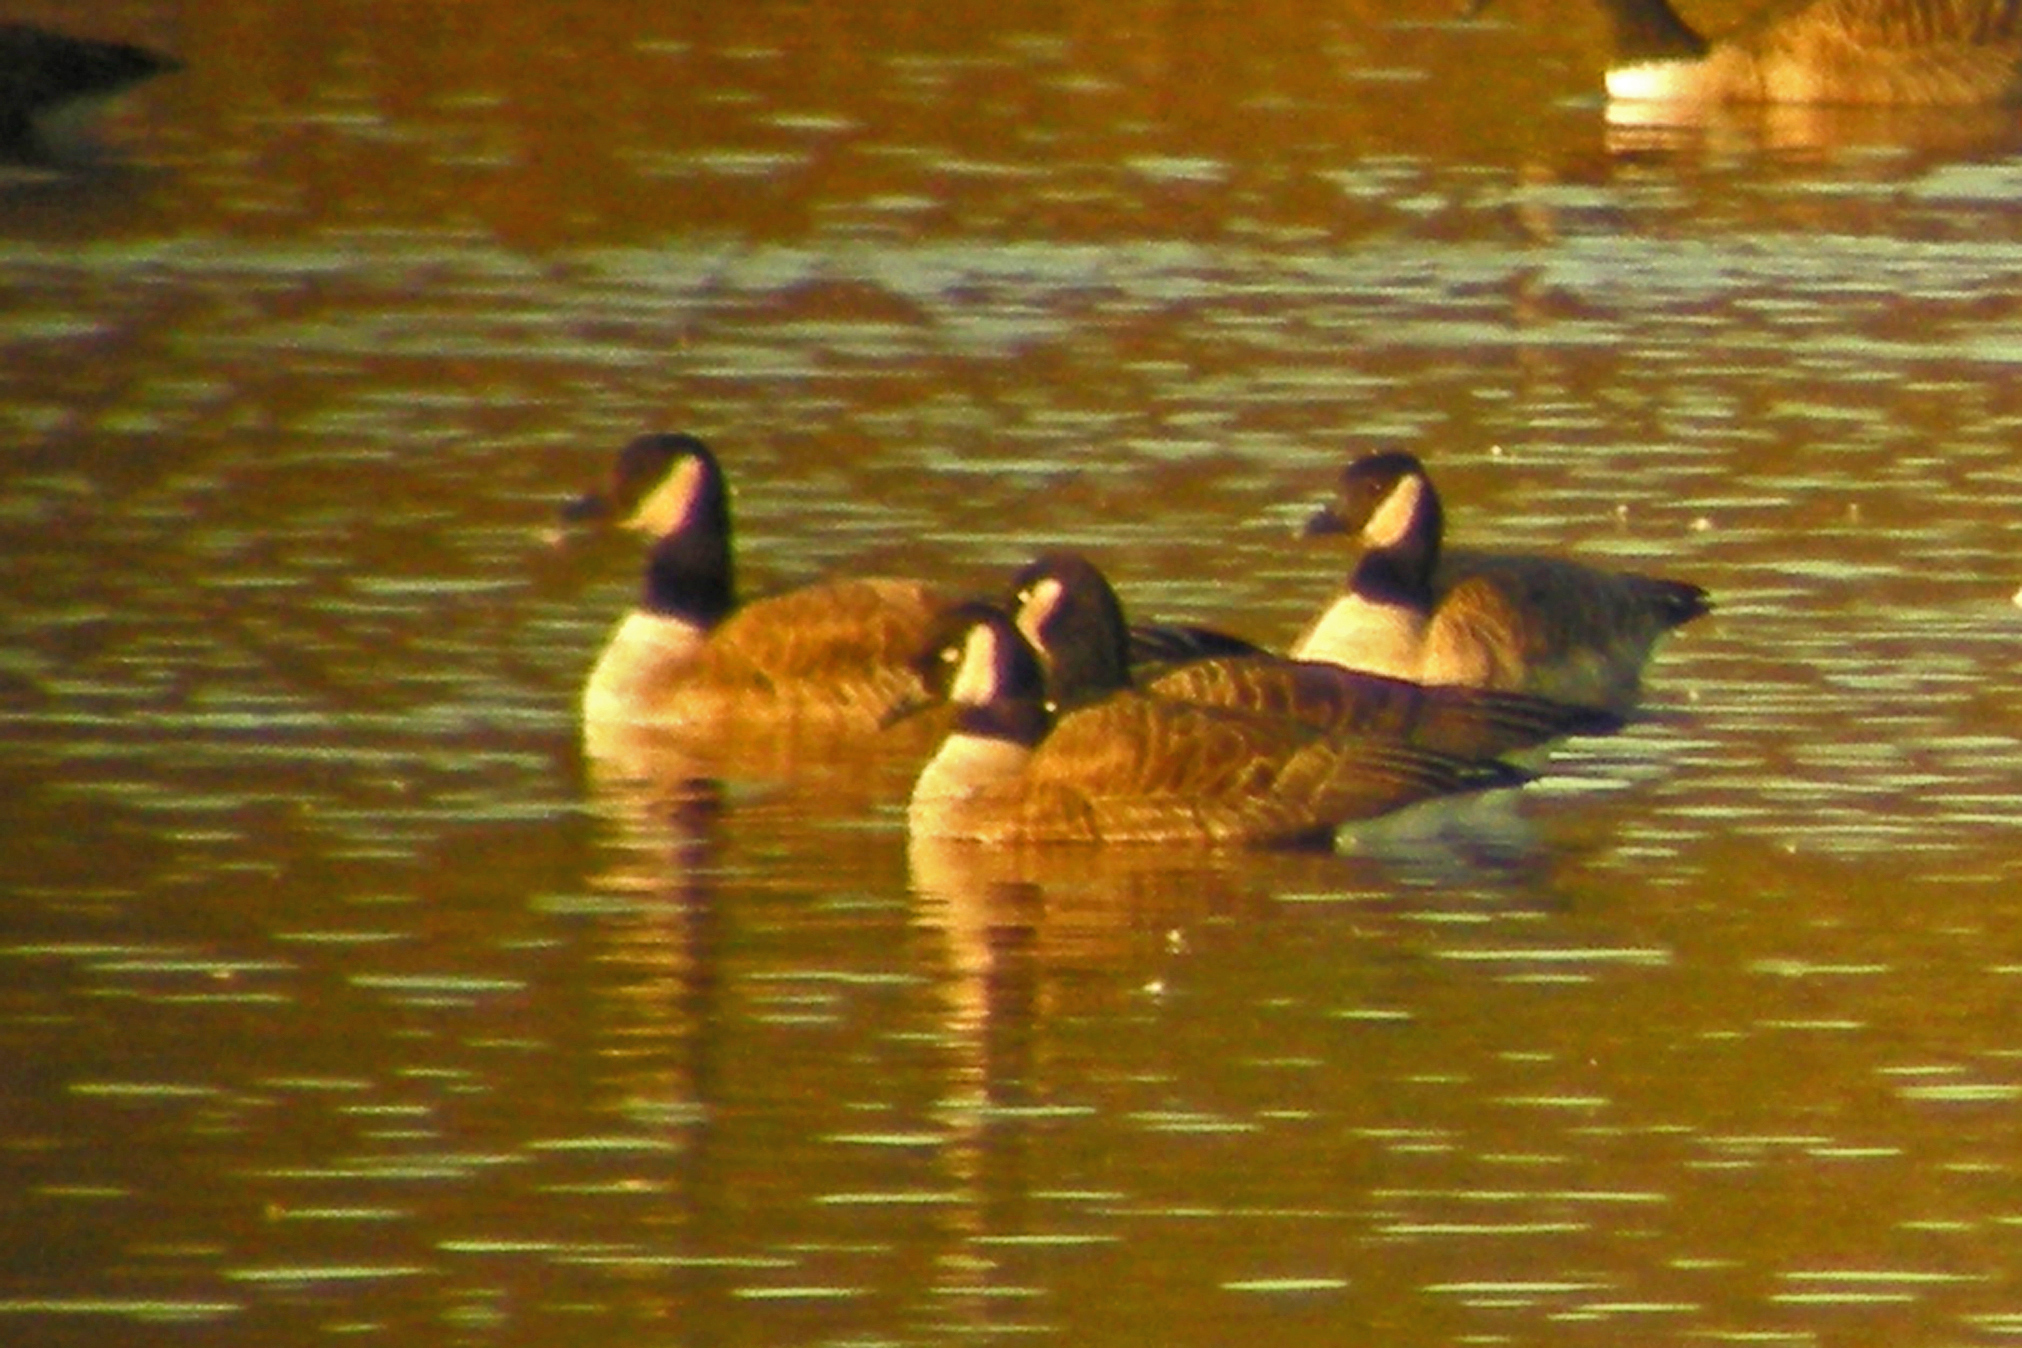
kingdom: Animalia
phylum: Chordata
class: Aves
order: Anseriformes
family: Anatidae
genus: Branta
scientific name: Branta canadensis
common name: Canada goose
